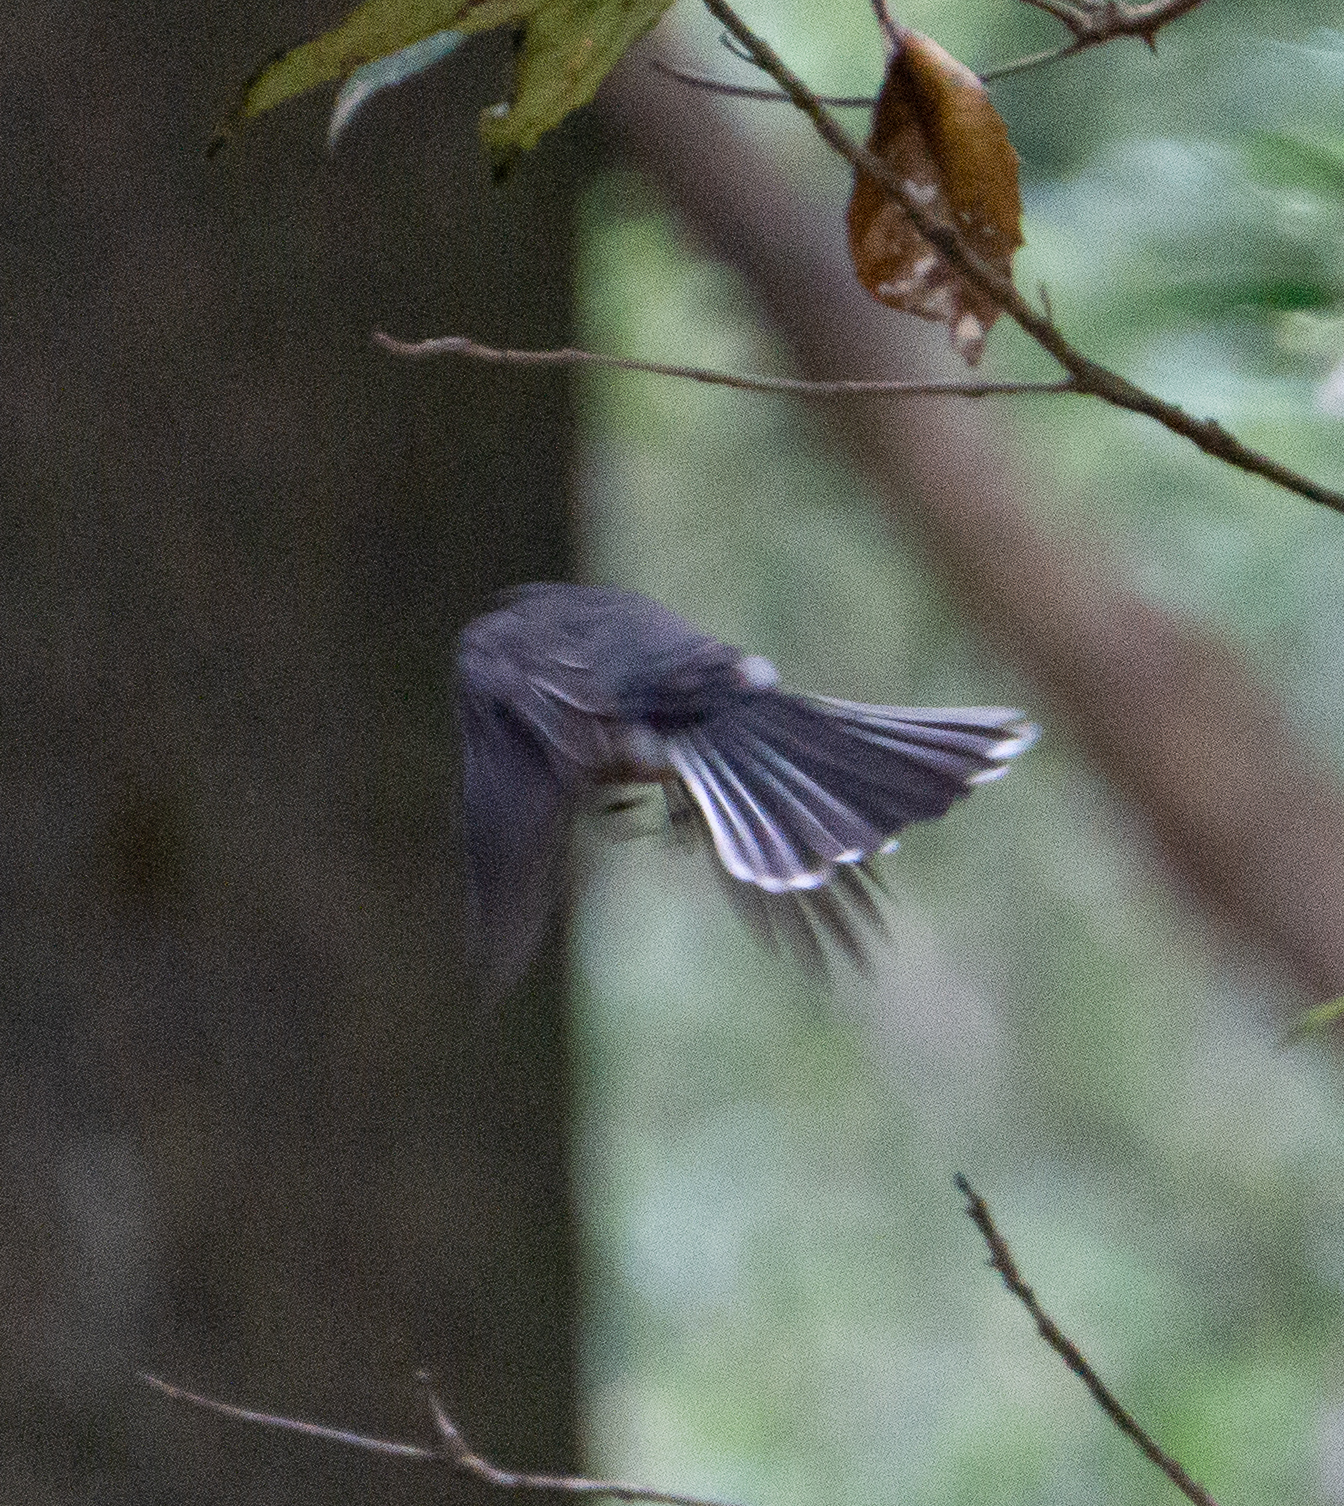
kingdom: Animalia
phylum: Chordata
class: Aves
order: Passeriformes
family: Rhipiduridae
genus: Rhipidura
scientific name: Rhipidura albiscapa
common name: Grey fantail
